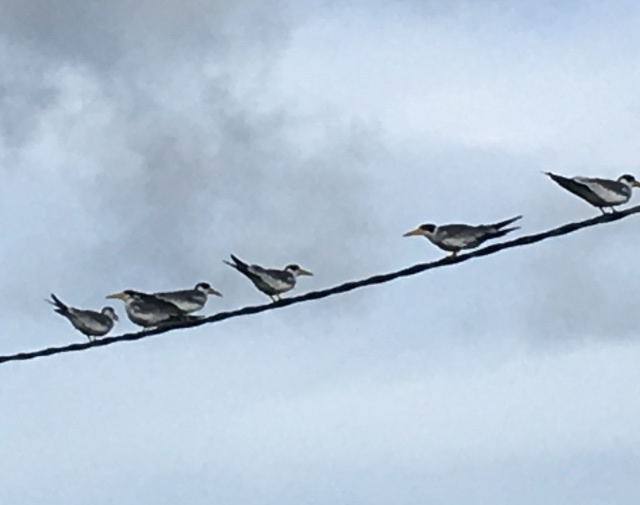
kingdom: Animalia
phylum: Chordata
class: Aves
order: Charadriiformes
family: Laridae
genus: Phaetusa
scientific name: Phaetusa simplex
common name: Large-billed tern
